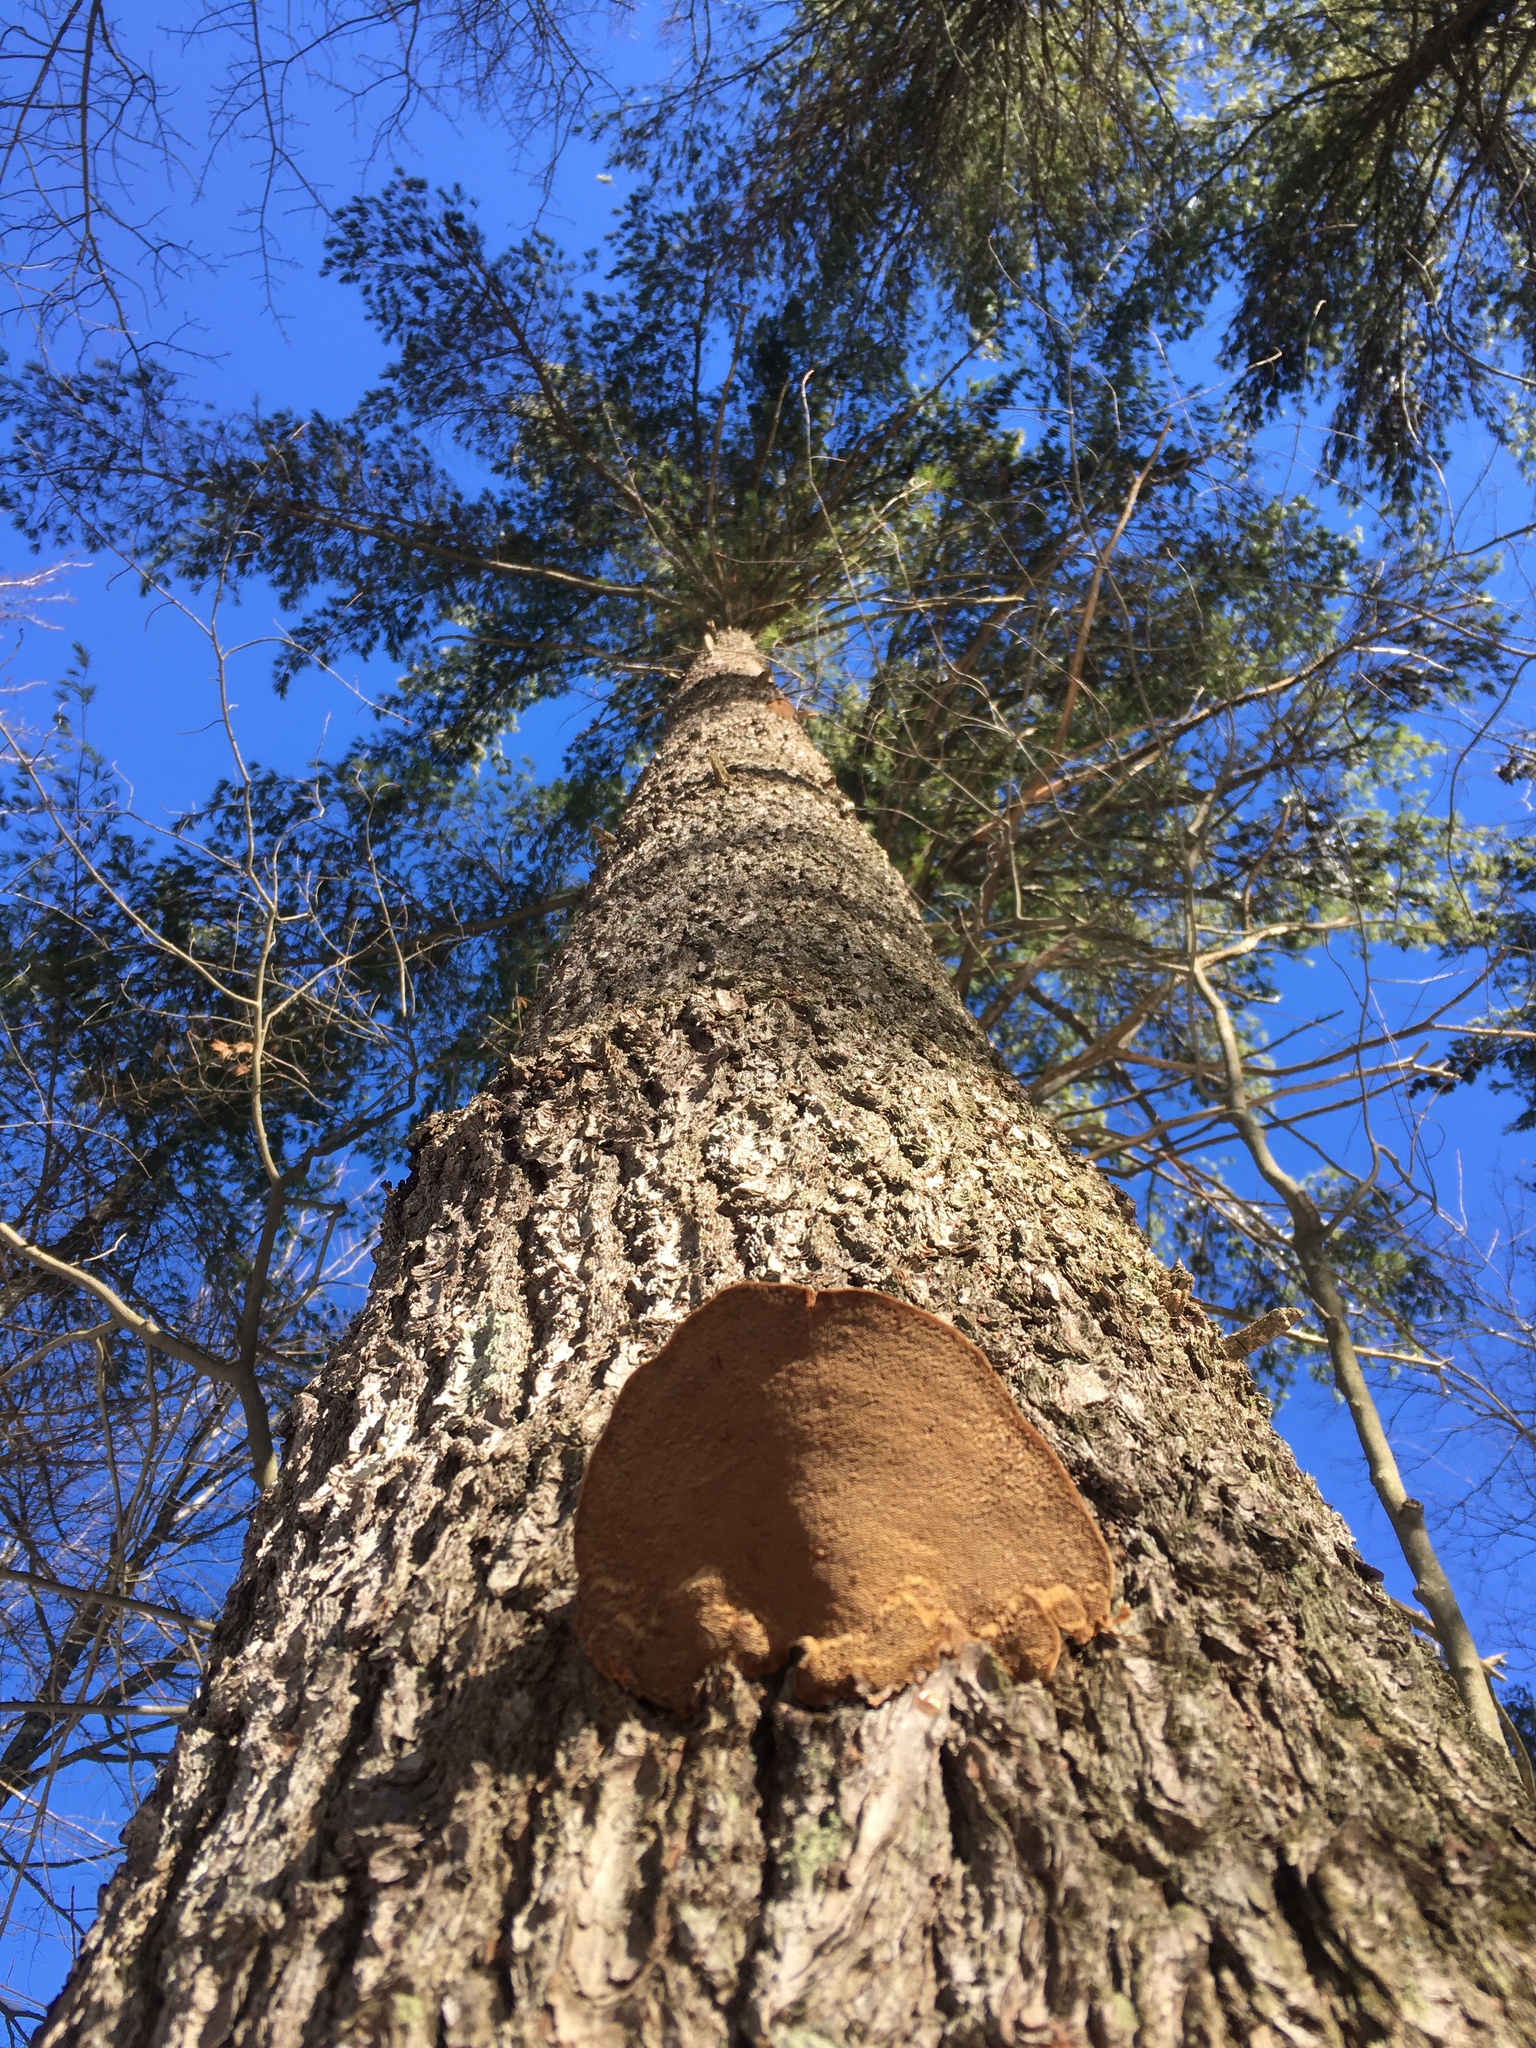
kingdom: Fungi
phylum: Basidiomycota
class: Agaricomycetes
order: Hymenochaetales
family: Hymenochaetaceae
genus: Porodaedalea
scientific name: Porodaedalea pini
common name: Pine bracket
